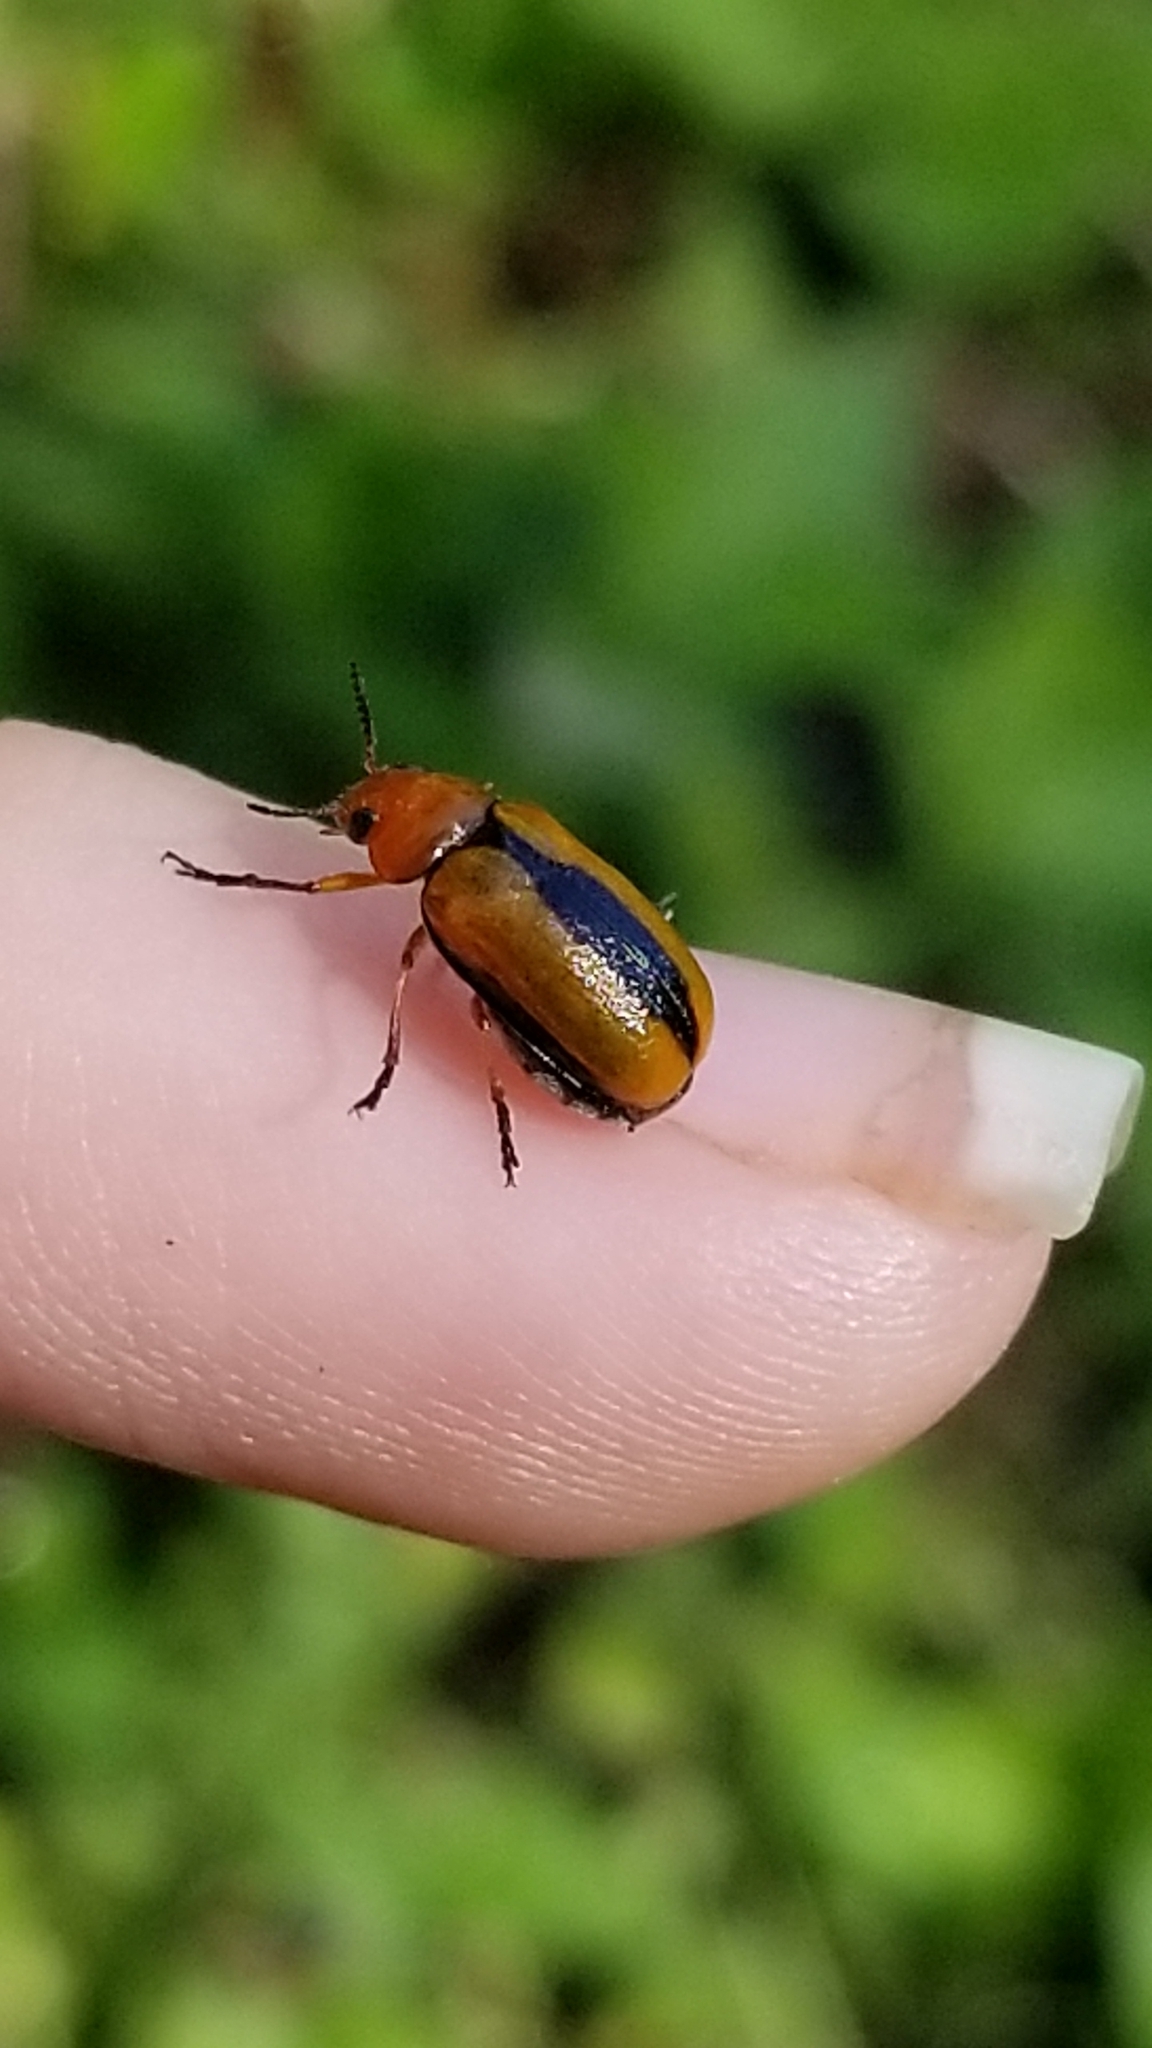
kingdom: Animalia
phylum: Arthropoda
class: Insecta
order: Coleoptera
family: Chrysomelidae
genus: Anomoea
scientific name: Anomoea laticlavia
